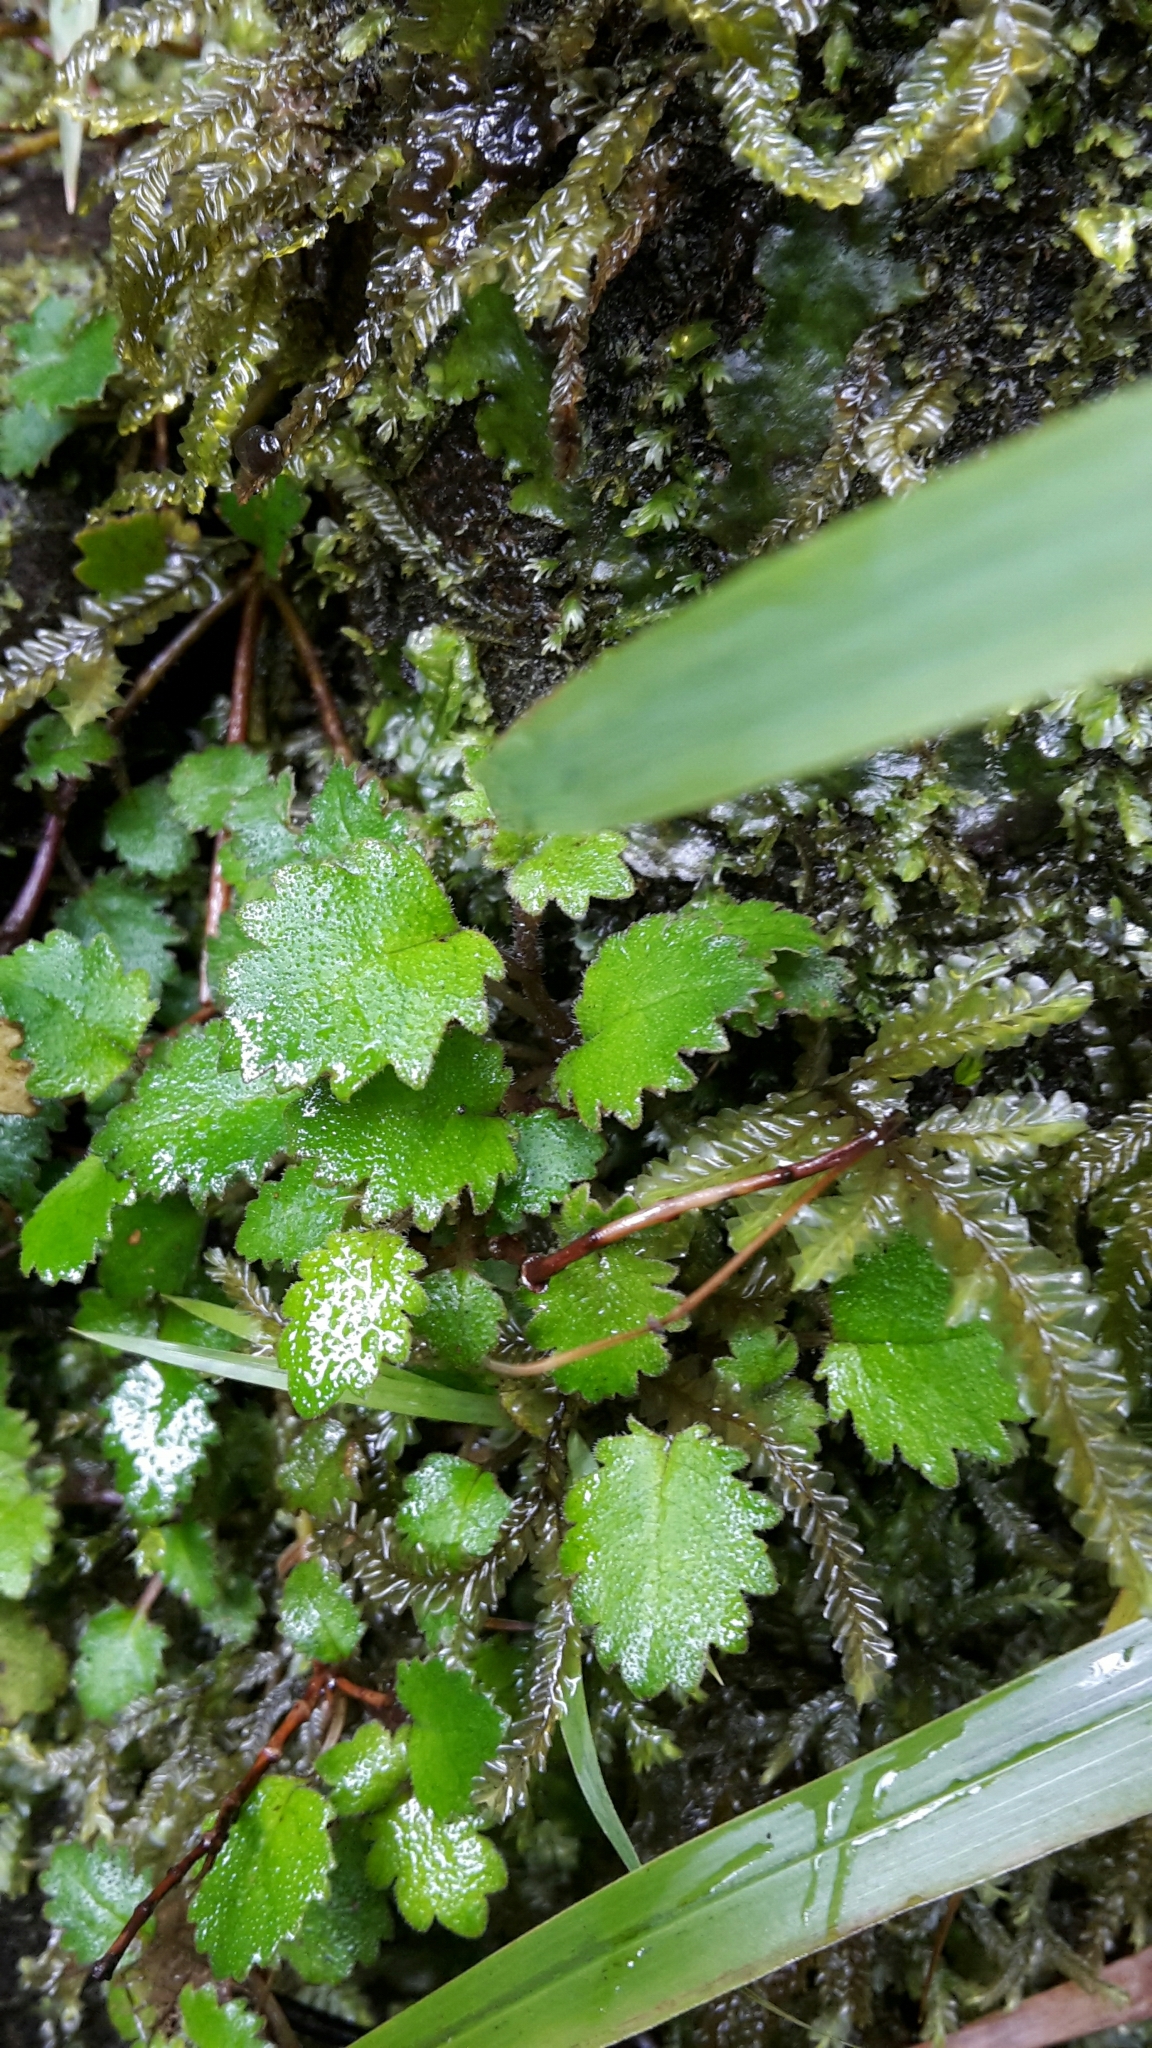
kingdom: Plantae
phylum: Tracheophyta
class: Magnoliopsida
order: Lamiales
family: Calceolariaceae
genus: Jovellana
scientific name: Jovellana repens
